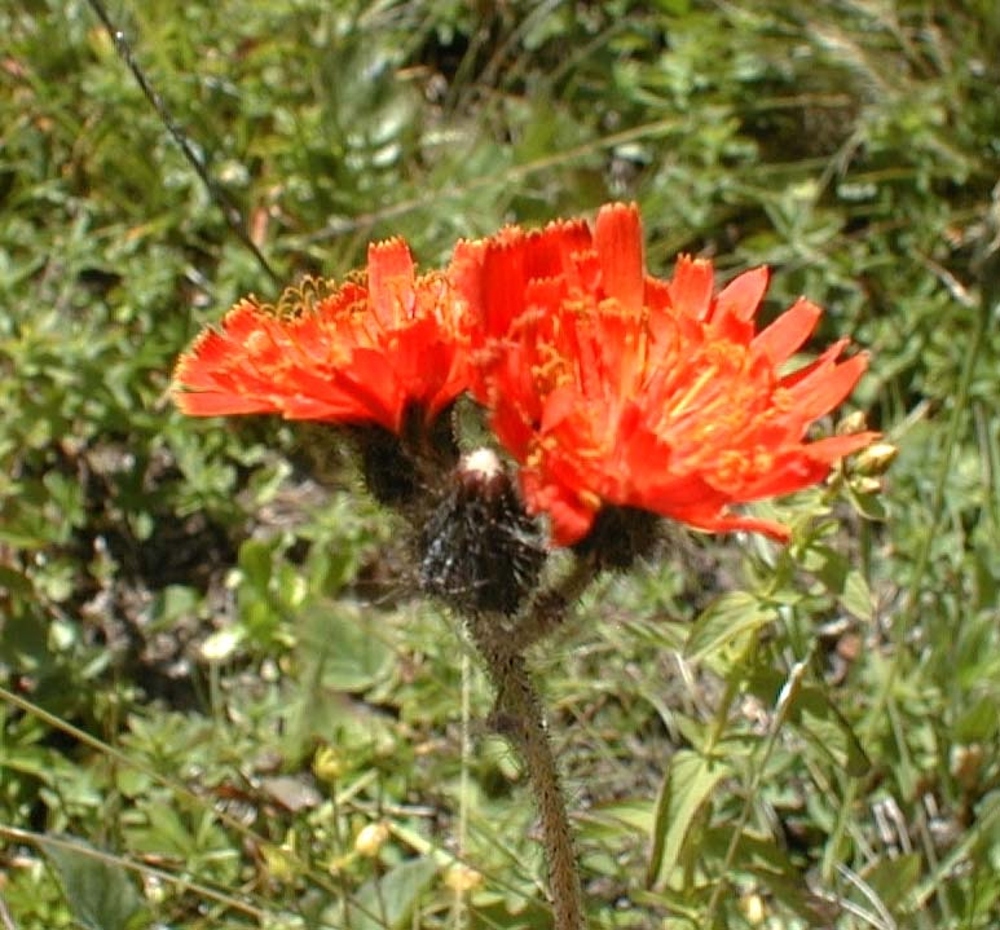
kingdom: Plantae
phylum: Tracheophyta
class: Magnoliopsida
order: Asterales
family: Asteraceae
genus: Pilosella
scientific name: Pilosella aurantiaca
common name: Fox-and-cubs
